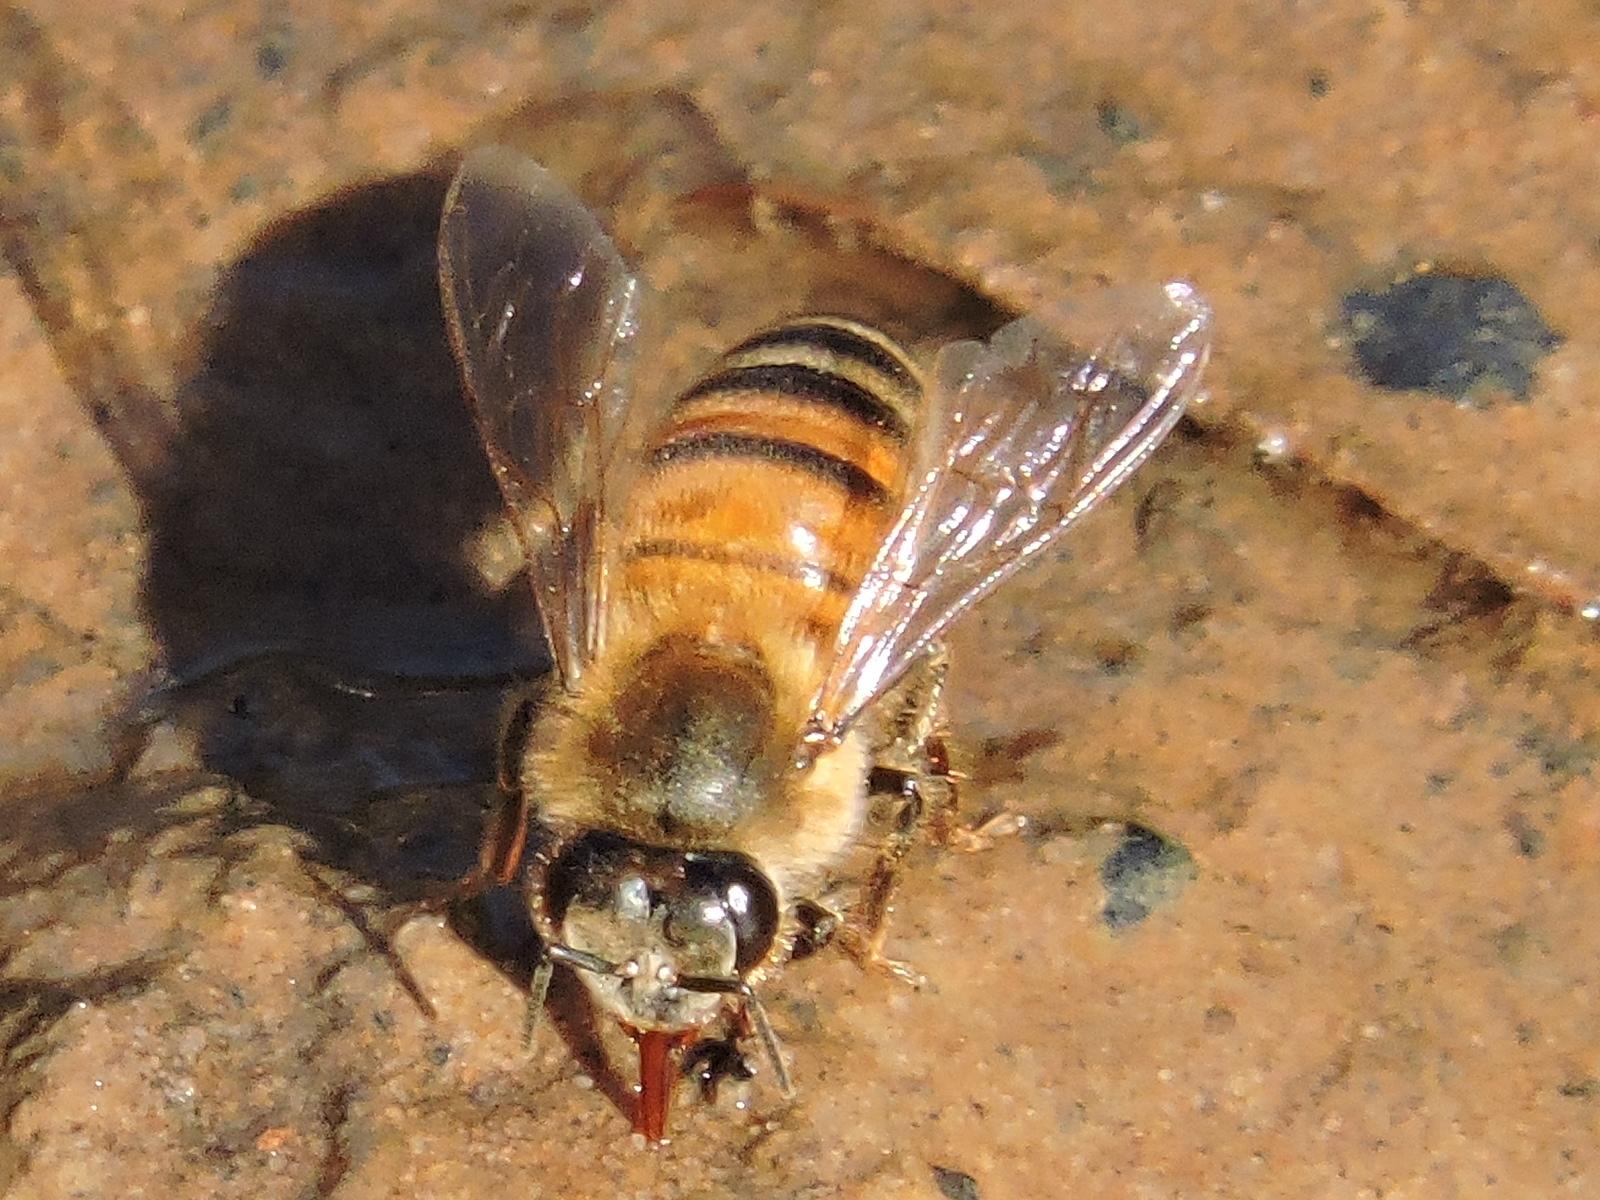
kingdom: Animalia
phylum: Arthropoda
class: Insecta
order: Hymenoptera
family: Apidae
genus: Apis
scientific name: Apis mellifera
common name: Honey bee
